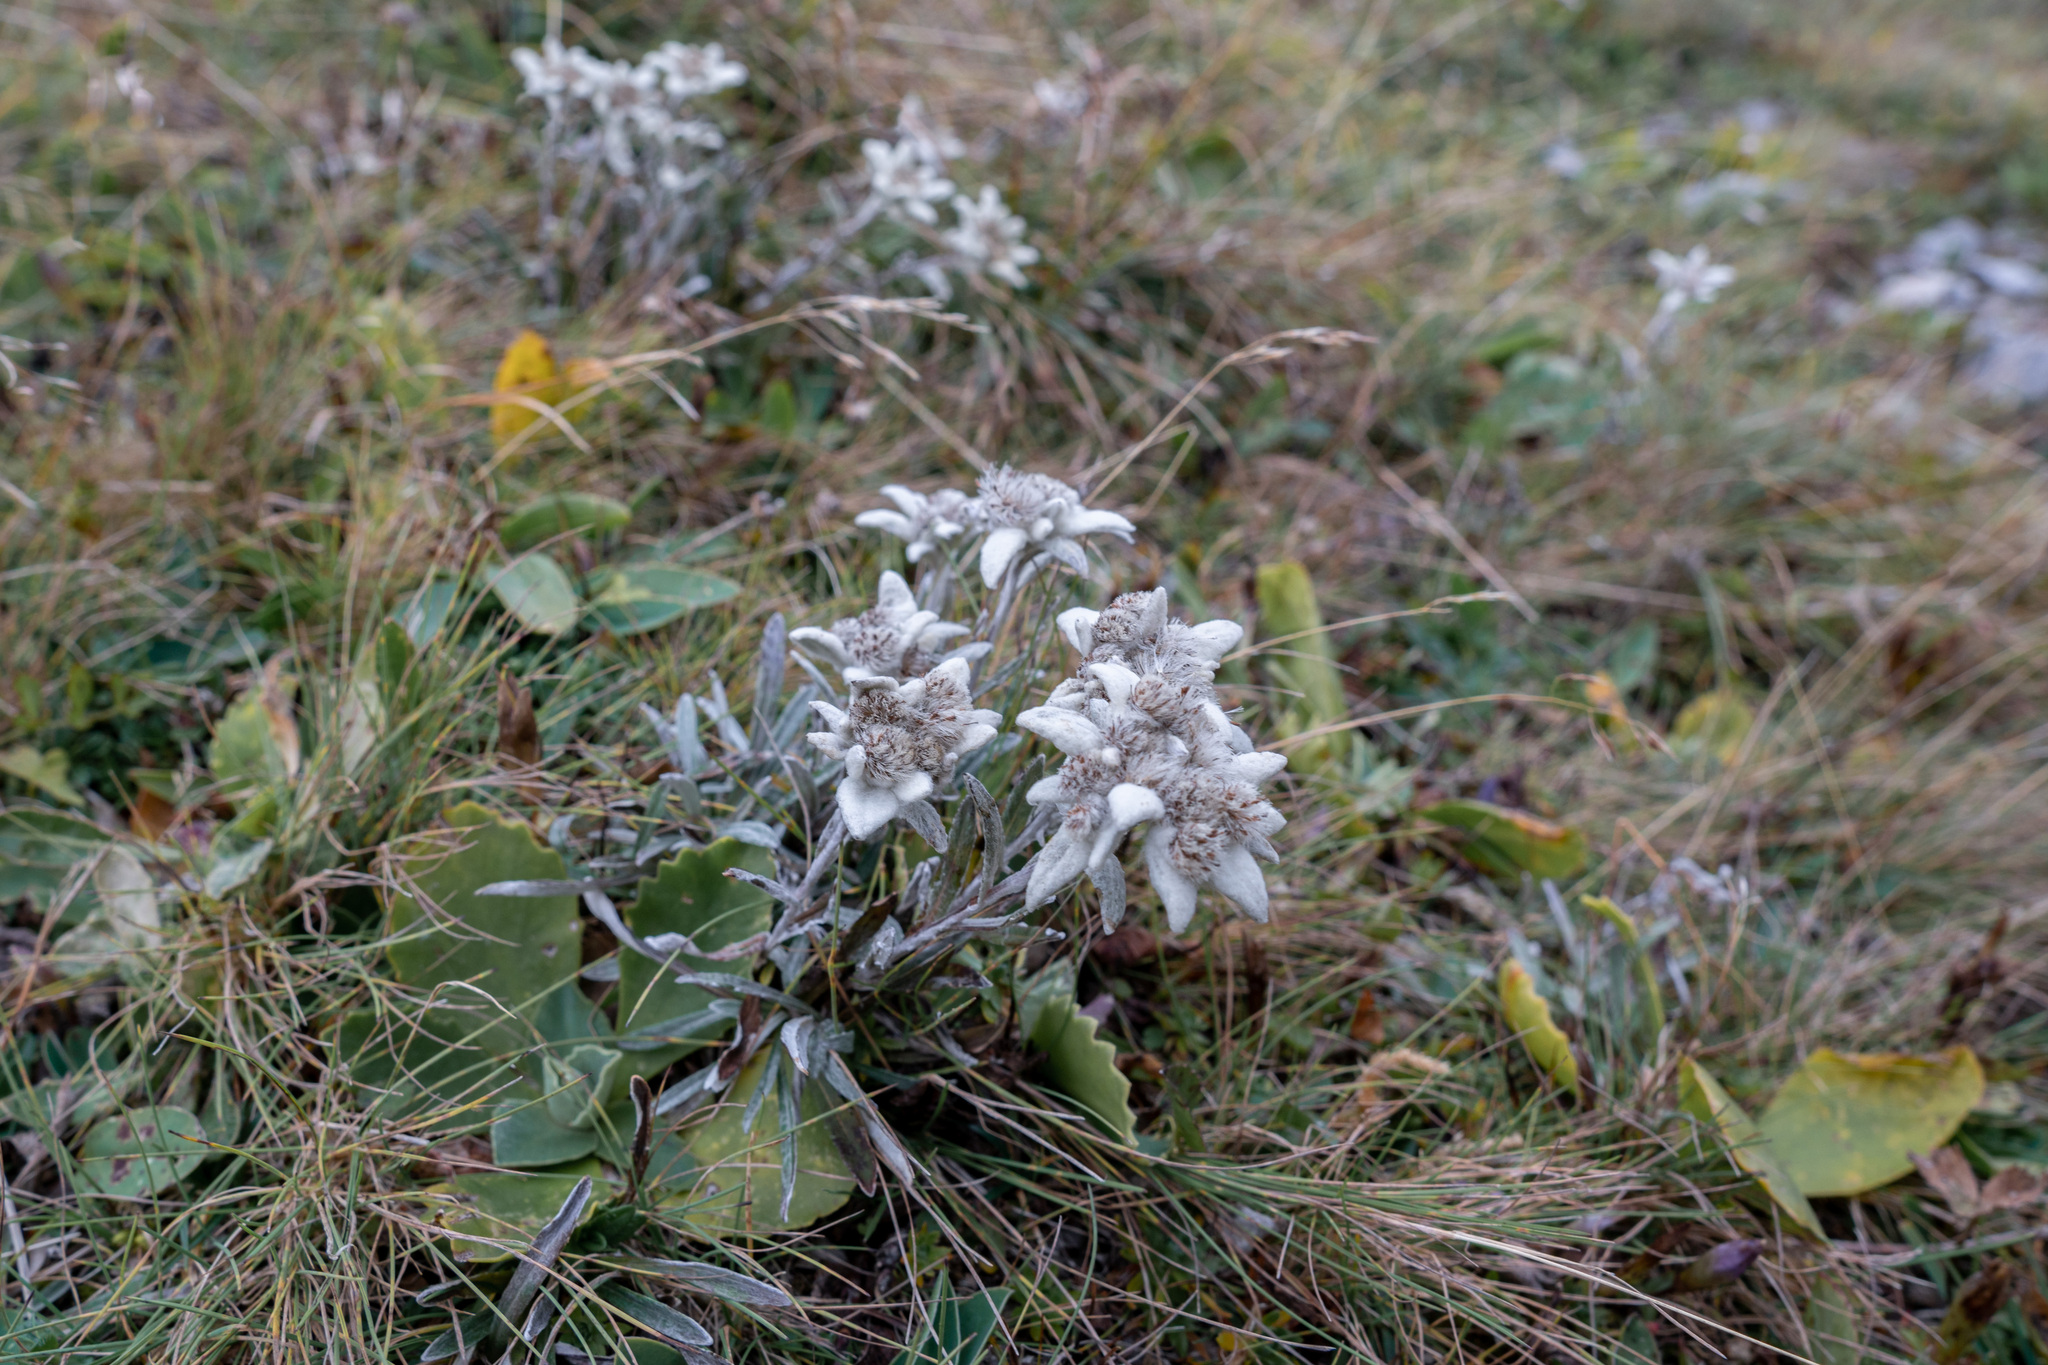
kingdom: Plantae
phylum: Tracheophyta
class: Magnoliopsida
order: Asterales
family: Asteraceae
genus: Leontopodium
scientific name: Leontopodium nivale
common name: Edelweiss
